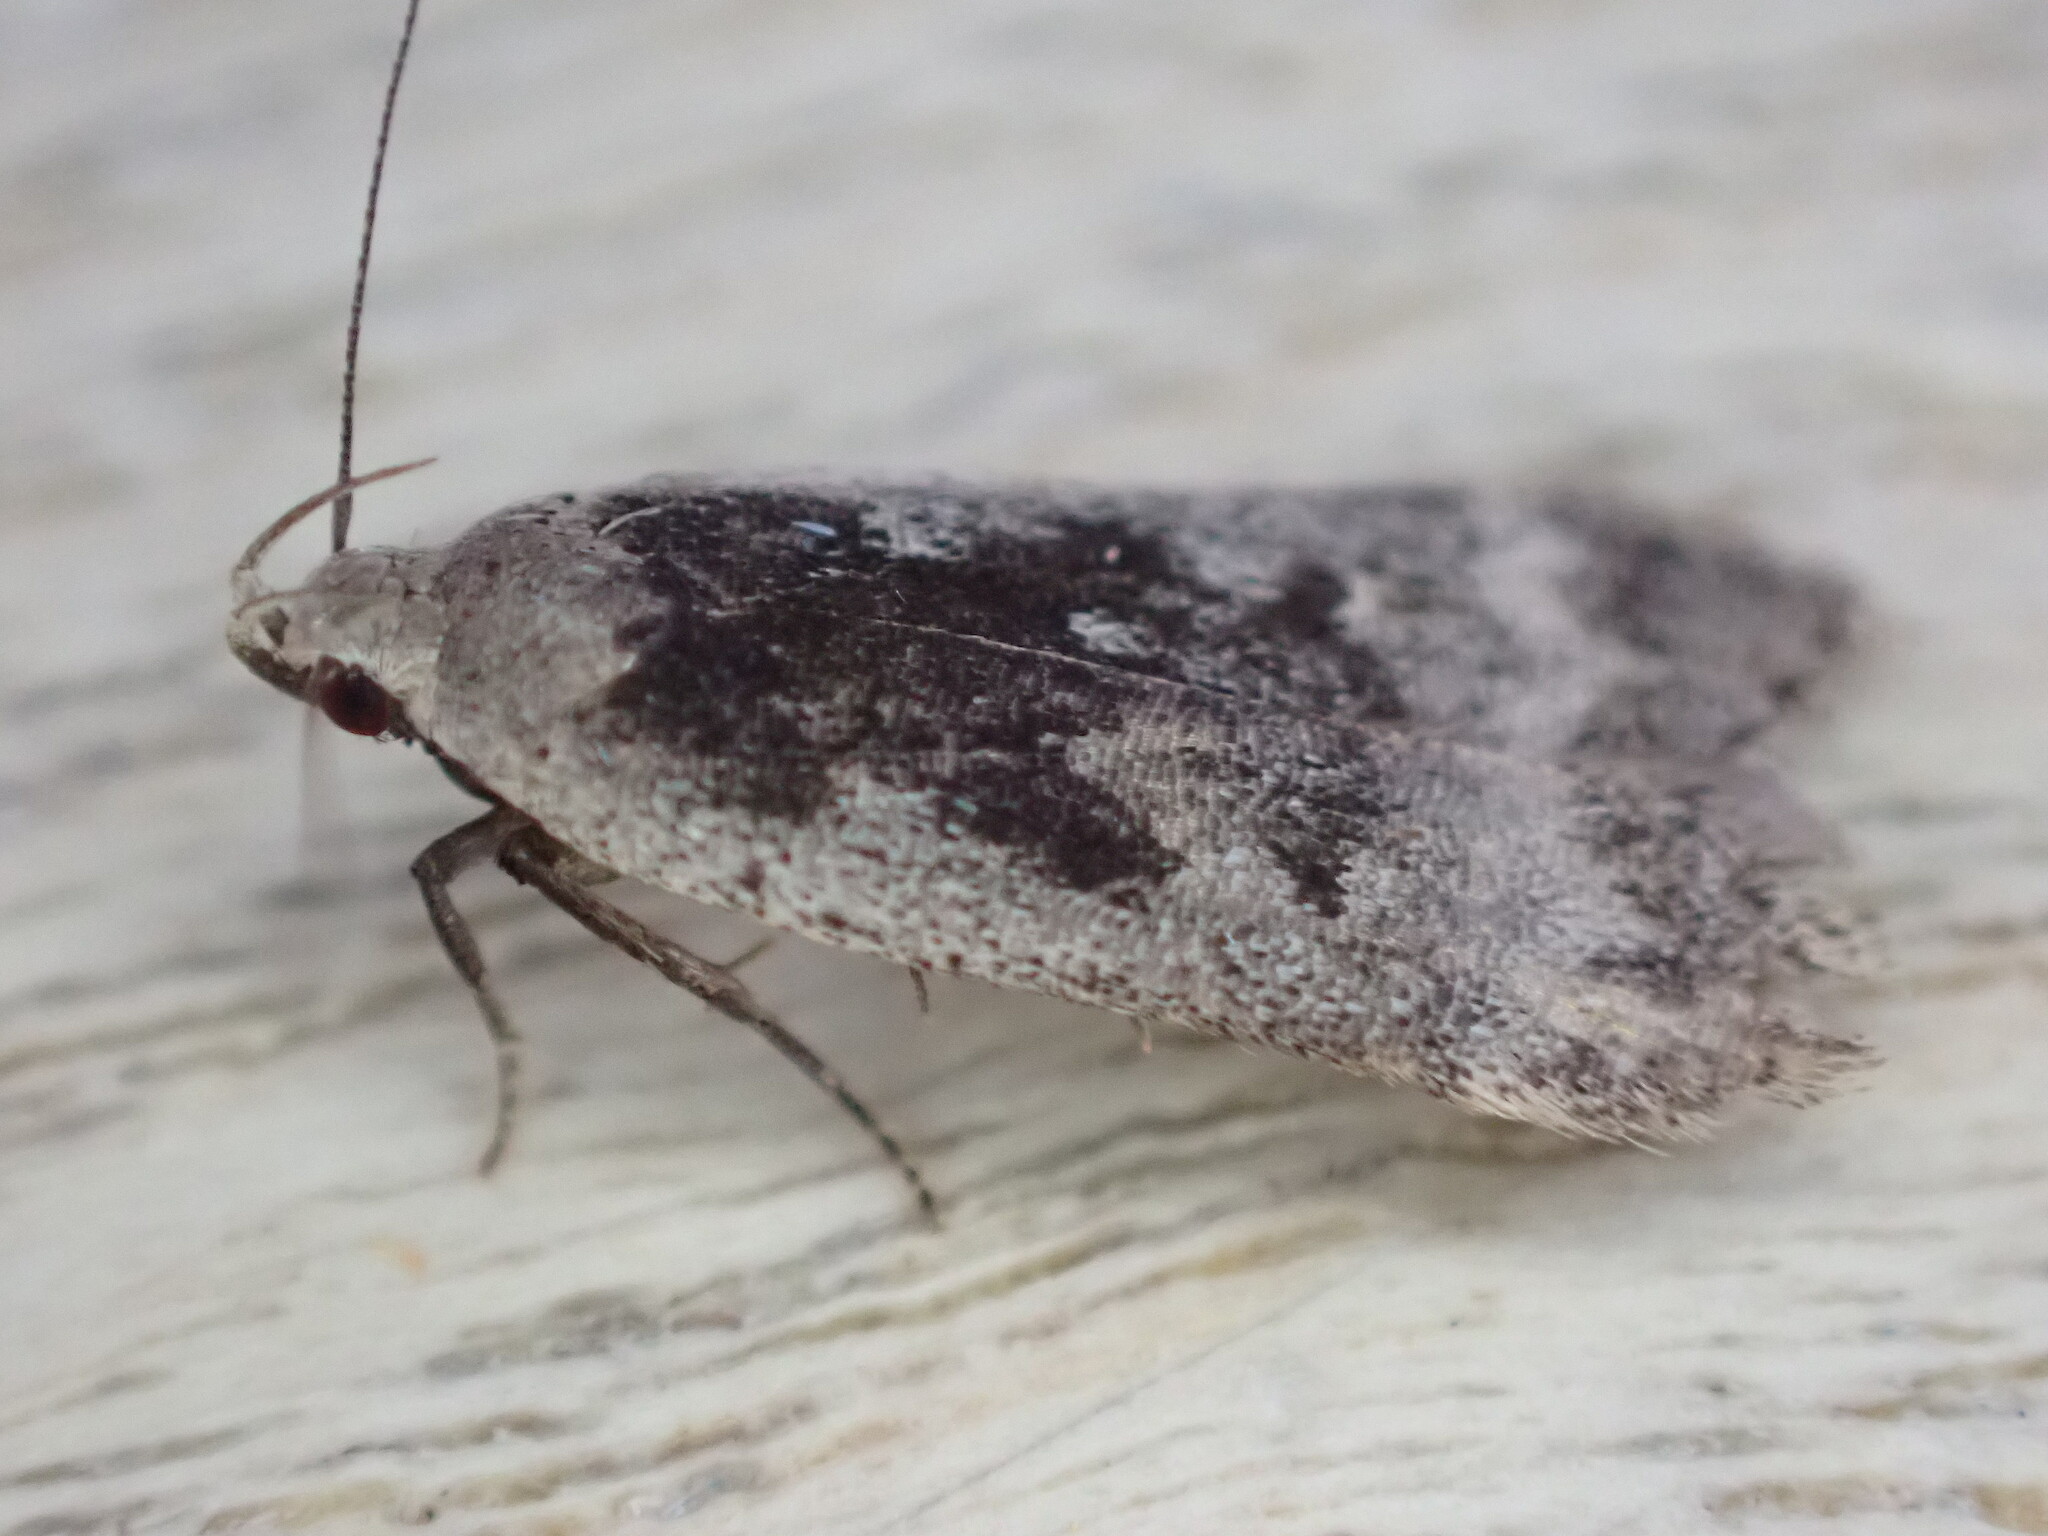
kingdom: Animalia
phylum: Arthropoda
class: Insecta
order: Lepidoptera
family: Gelechiidae
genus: Anacampsis
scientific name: Anacampsis
